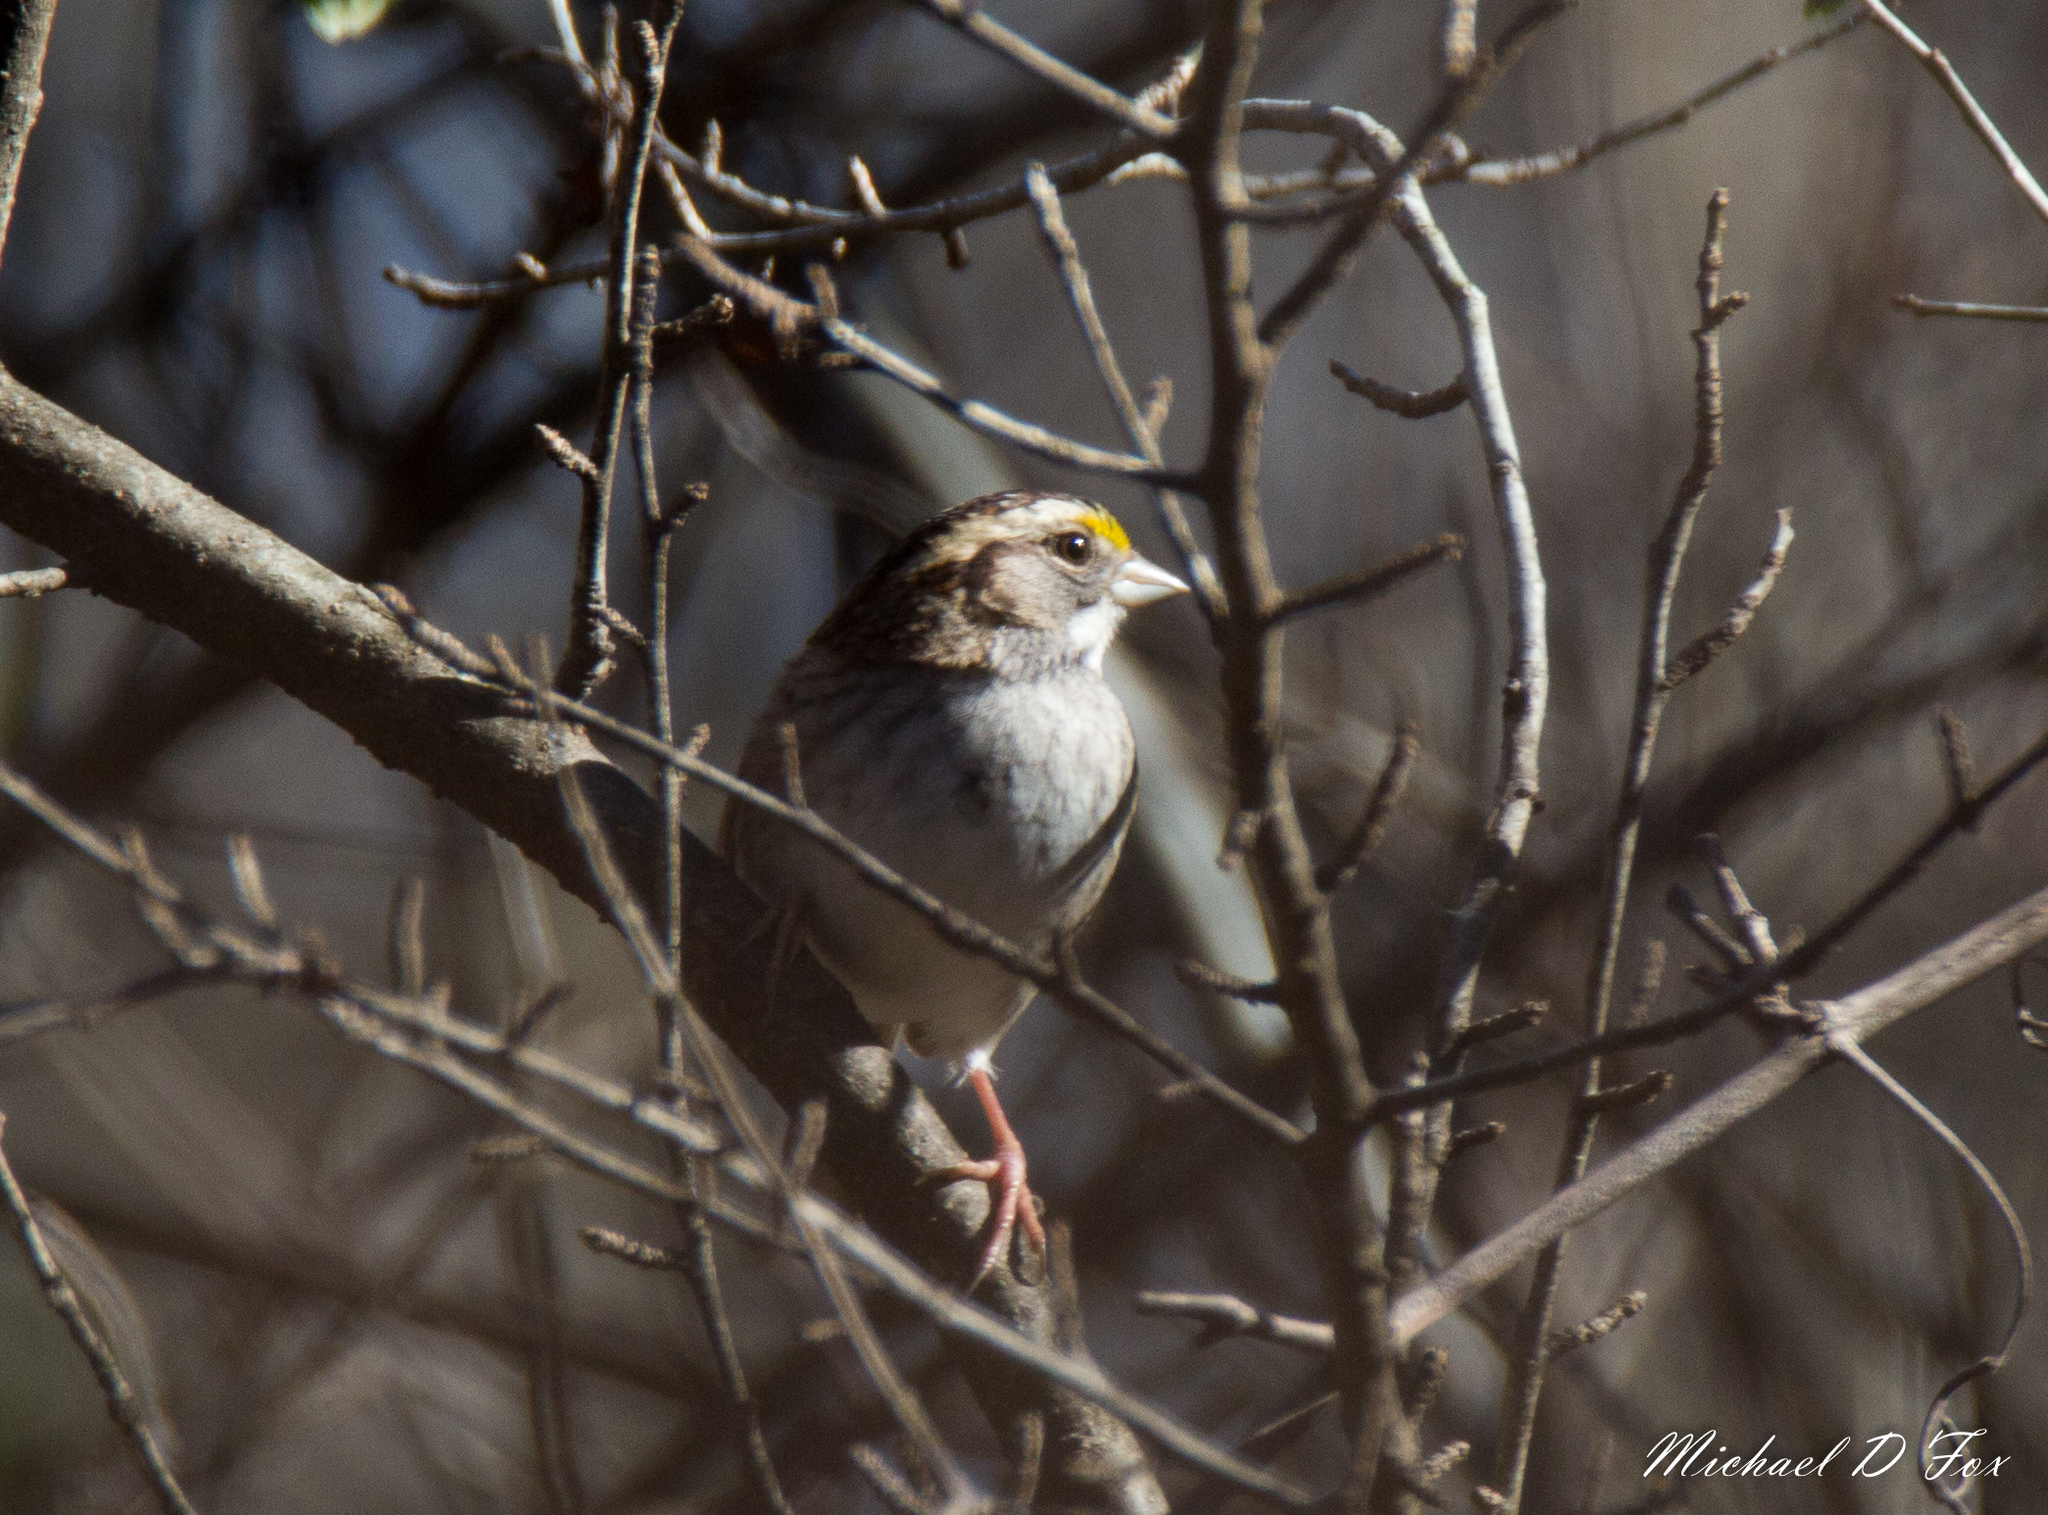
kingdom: Animalia
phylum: Chordata
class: Aves
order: Passeriformes
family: Passerellidae
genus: Zonotrichia
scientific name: Zonotrichia albicollis
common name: White-throated sparrow
